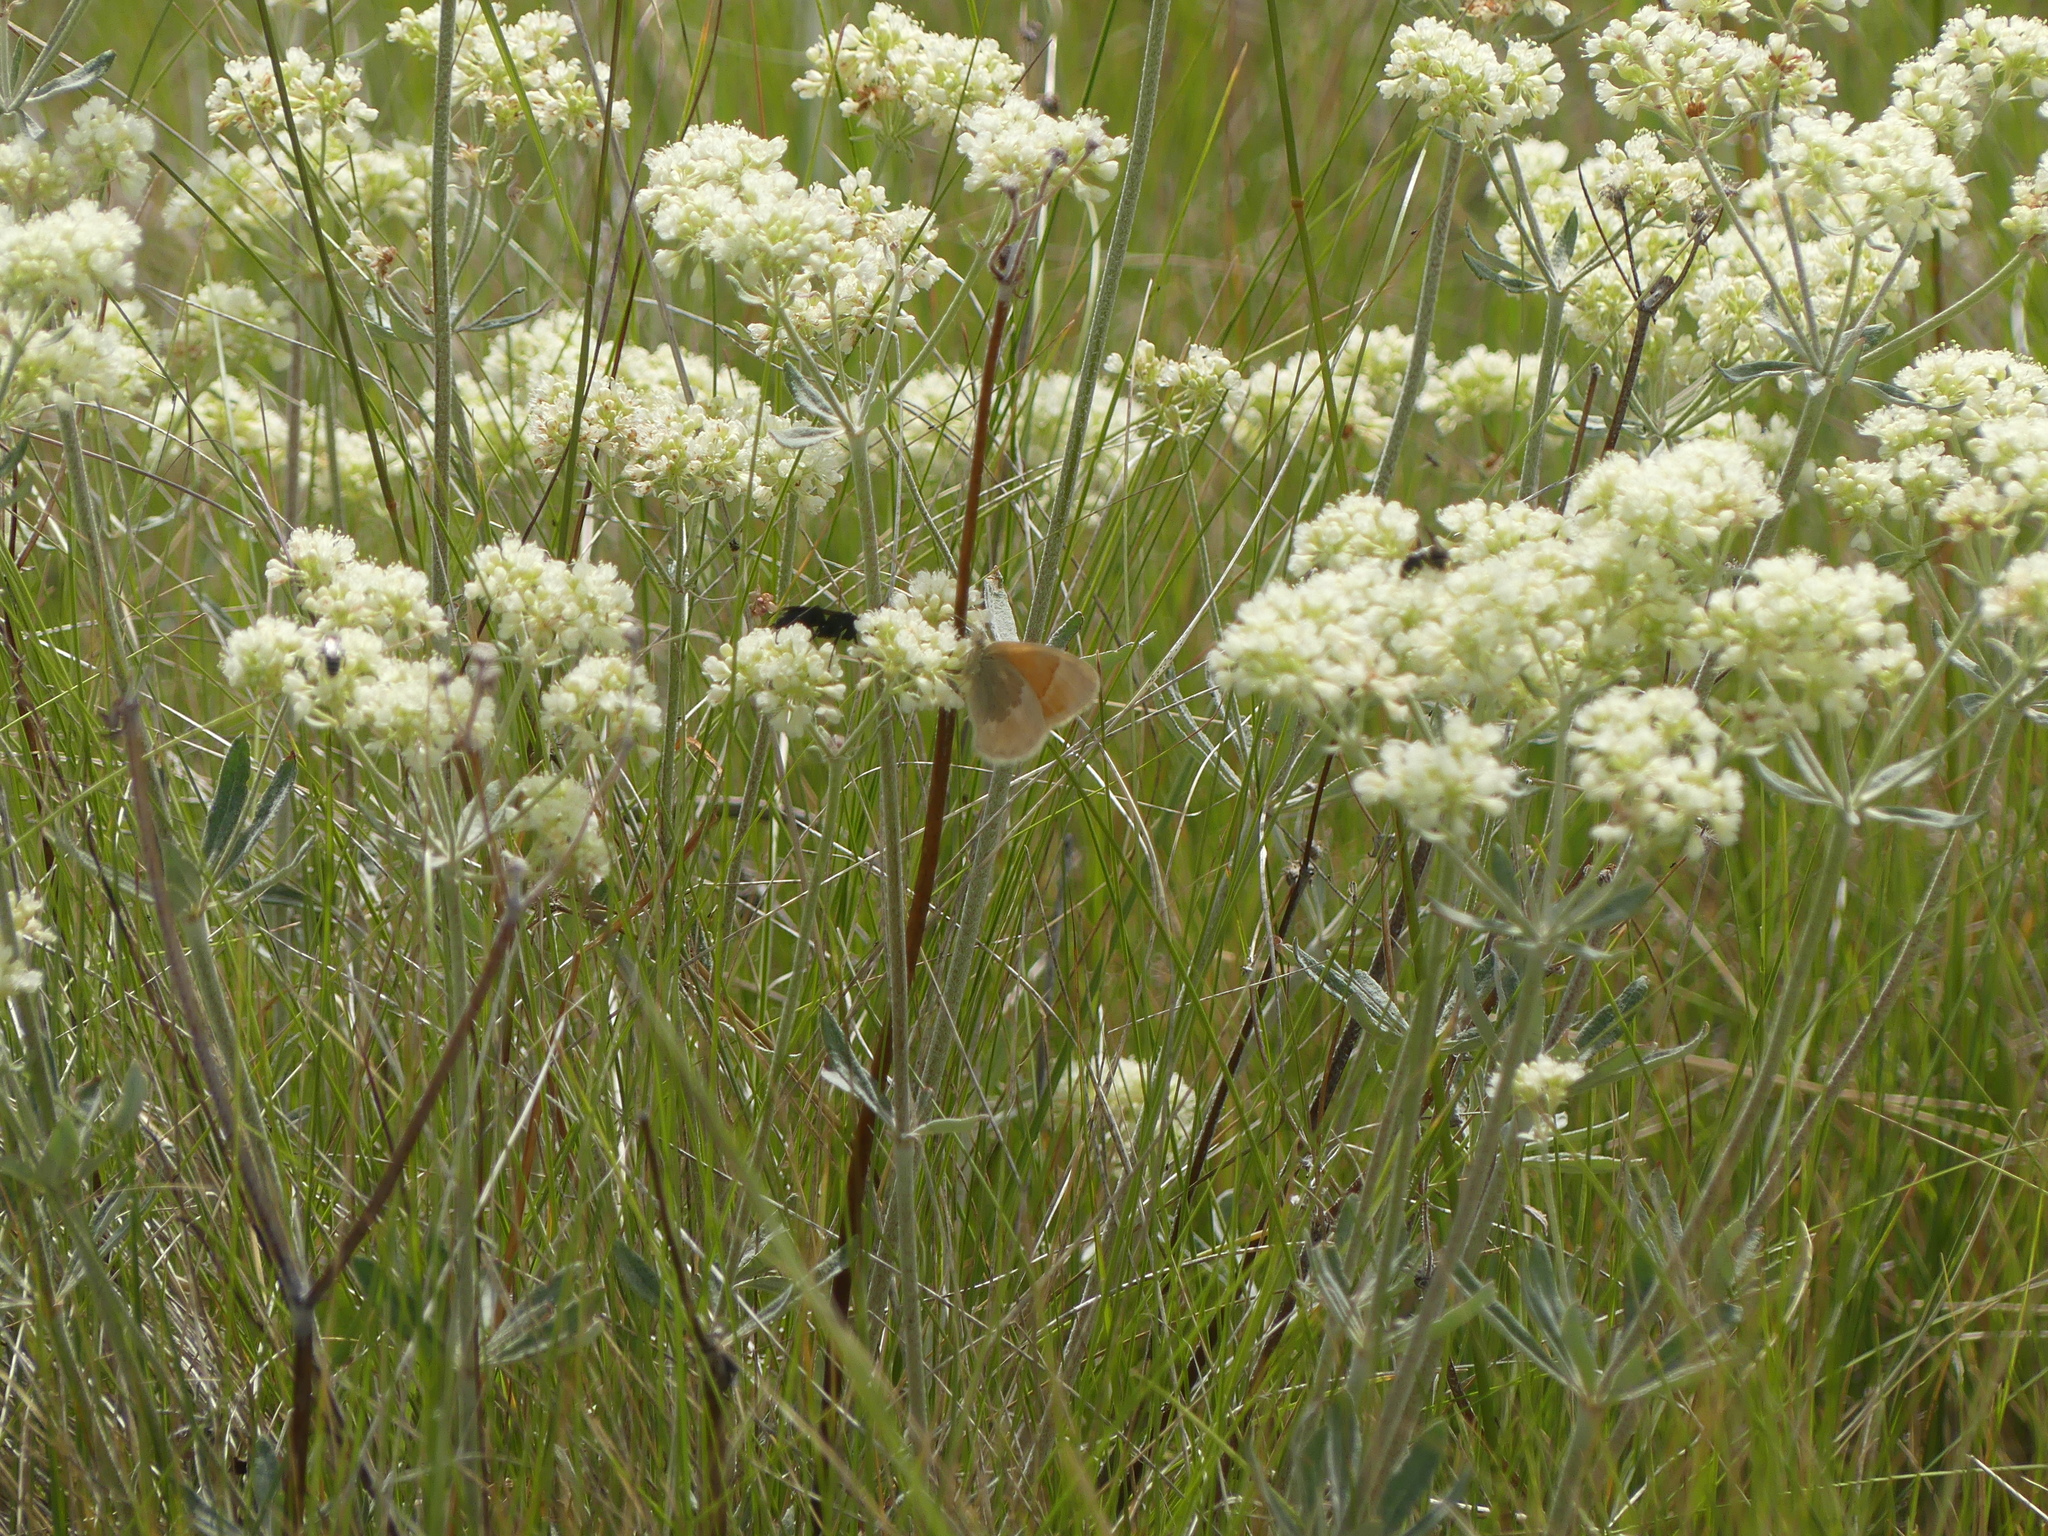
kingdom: Animalia
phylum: Arthropoda
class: Insecta
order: Lepidoptera
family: Nymphalidae
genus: Coenonympha
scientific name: Coenonympha california
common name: Common ringlet
